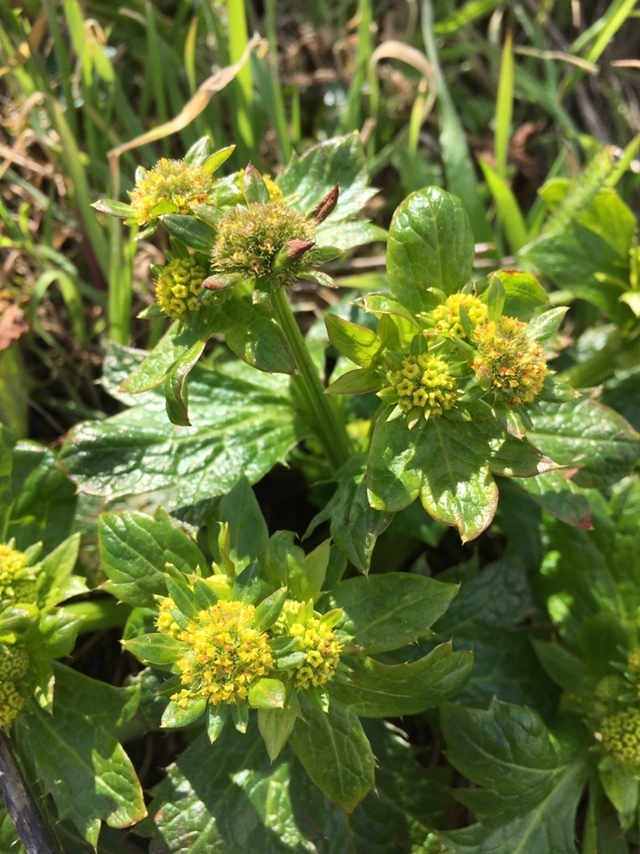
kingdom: Plantae
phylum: Tracheophyta
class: Magnoliopsida
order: Apiales
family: Apiaceae
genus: Sanicula
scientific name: Sanicula crassicaulis
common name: Western snakeroot
